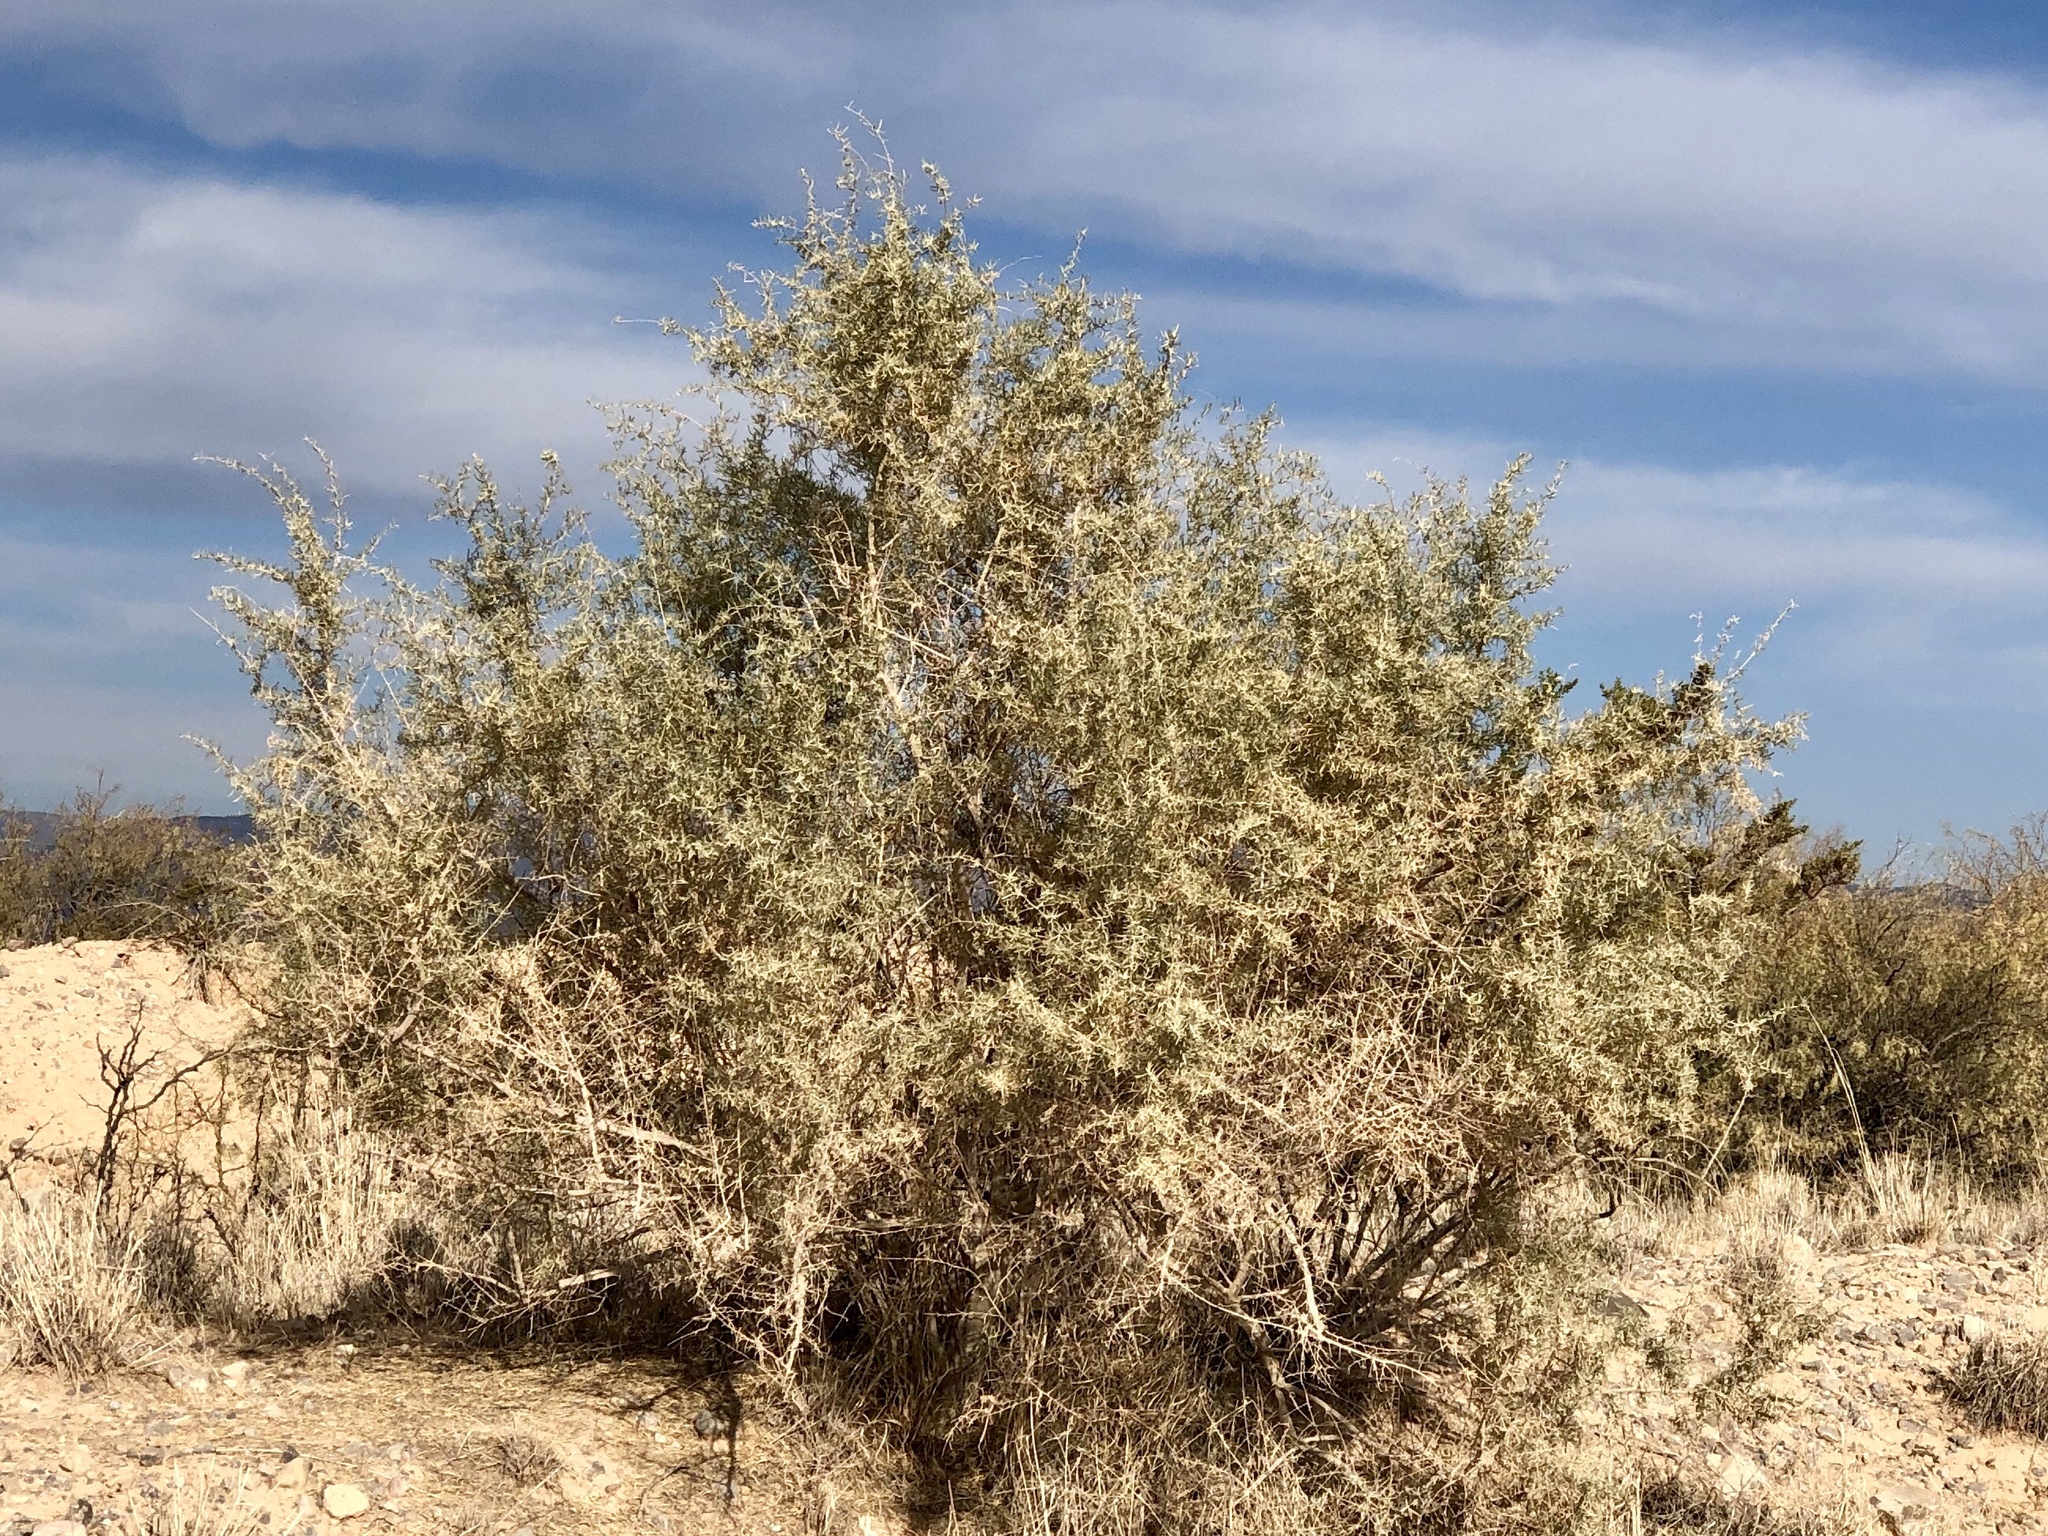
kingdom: Plantae
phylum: Tracheophyta
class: Magnoliopsida
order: Caryophyllales
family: Amaranthaceae
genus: Atriplex
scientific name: Atriplex canescens
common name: Four-wing saltbush
